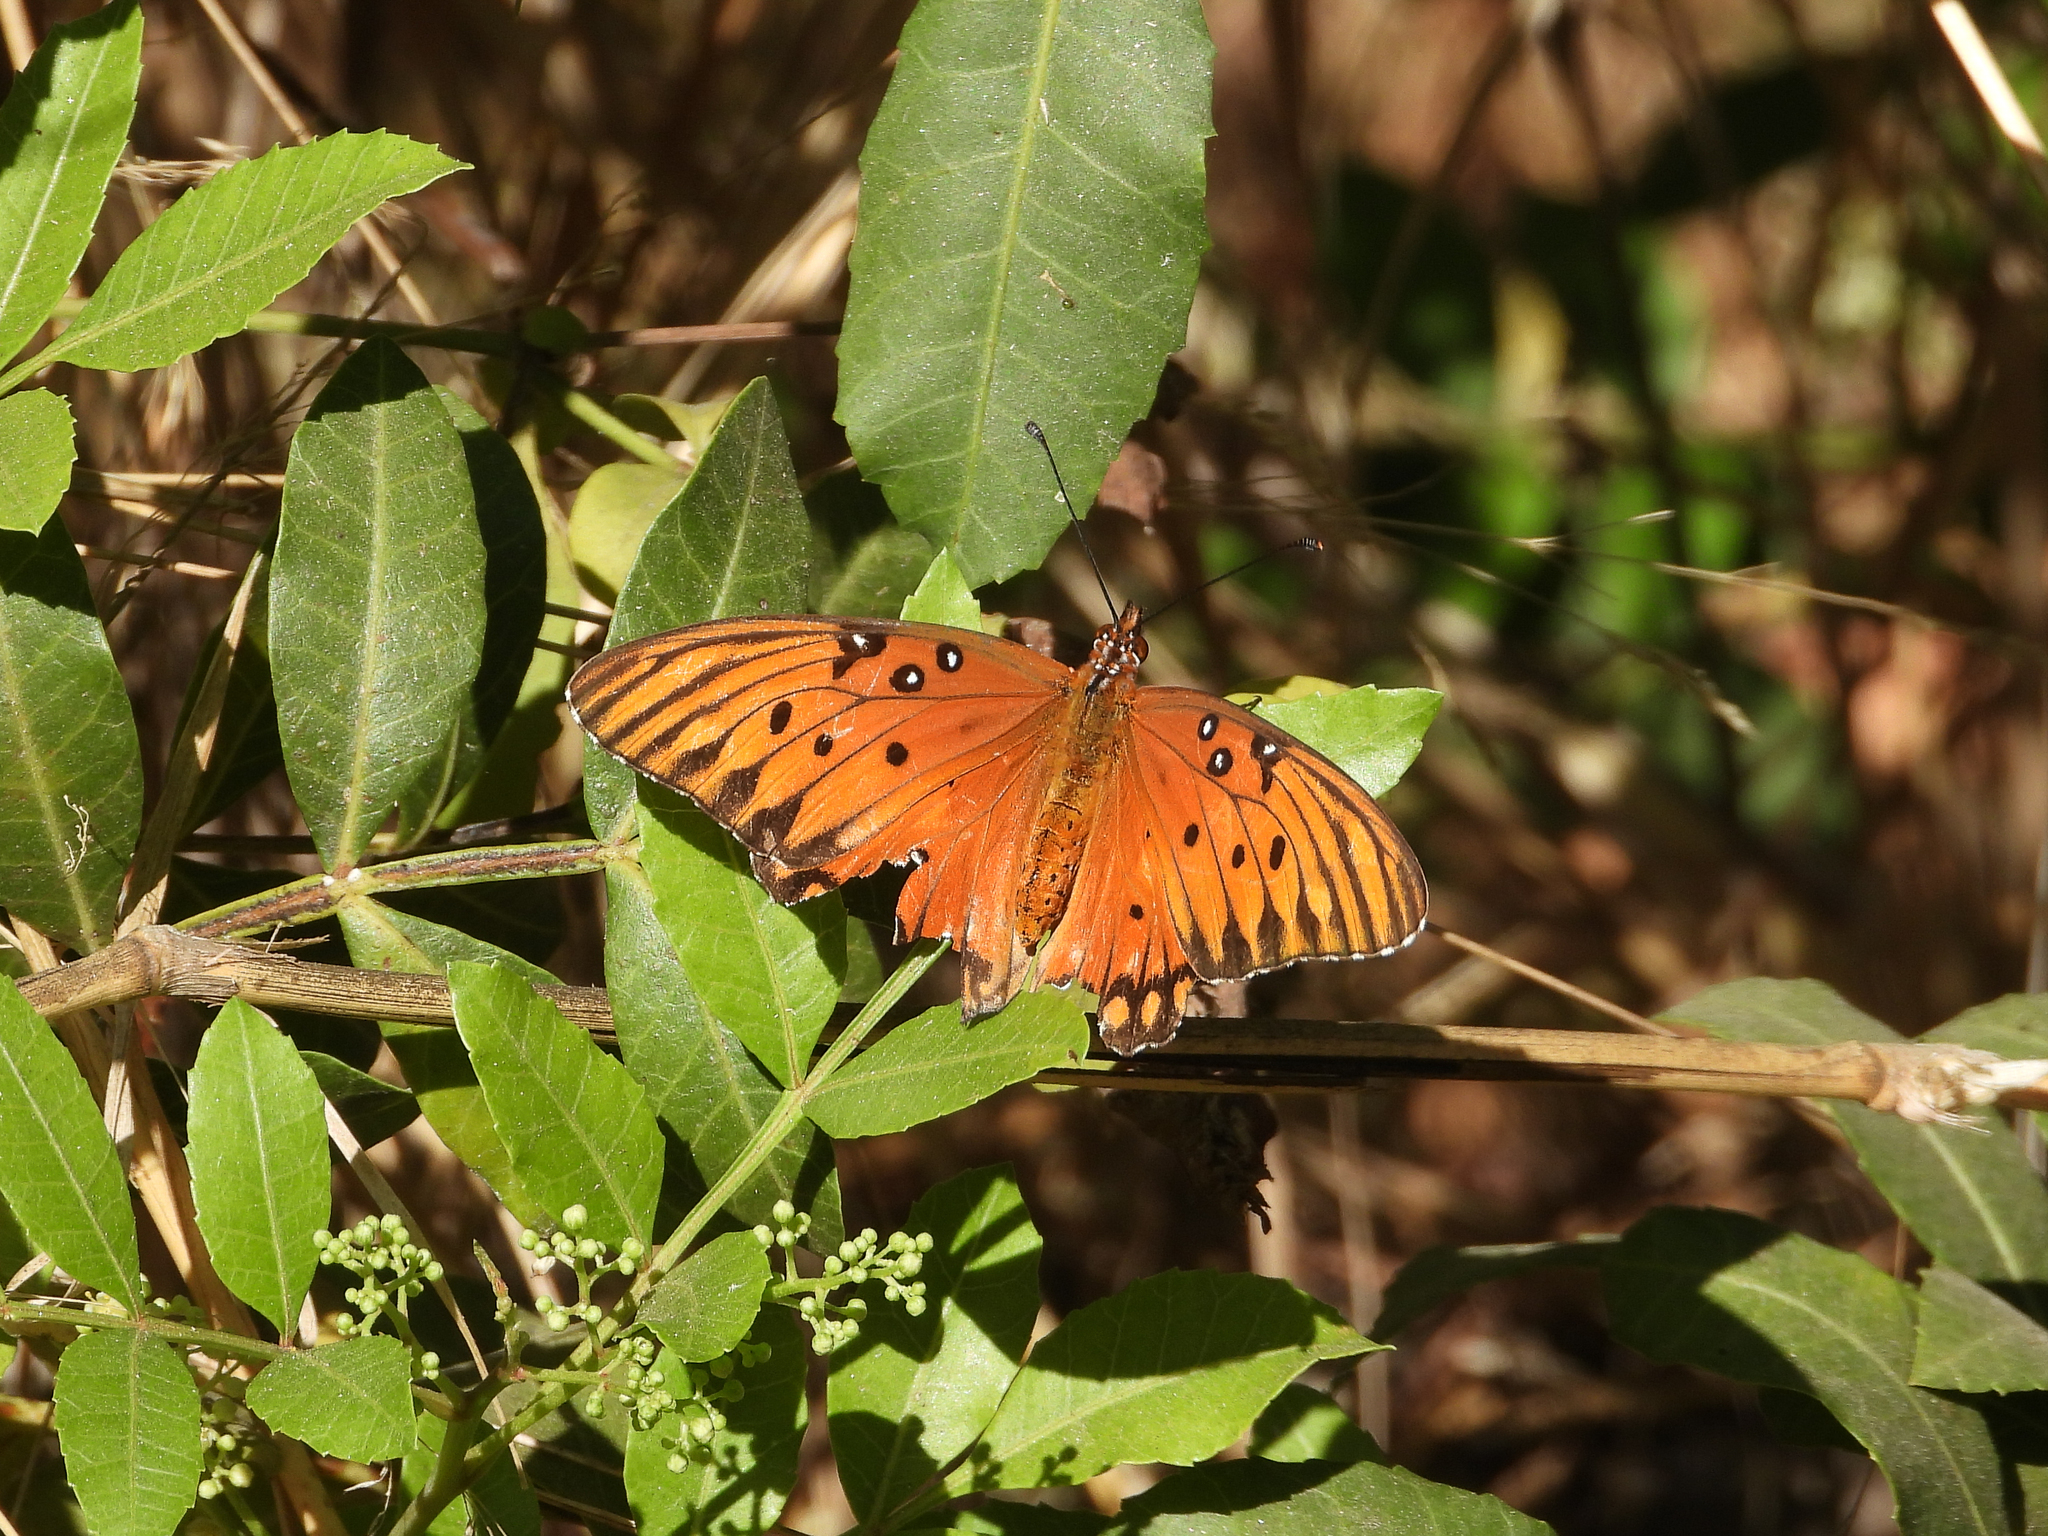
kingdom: Animalia
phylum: Arthropoda
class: Insecta
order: Lepidoptera
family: Nymphalidae
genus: Dione
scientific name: Dione vanillae
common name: Gulf fritillary
